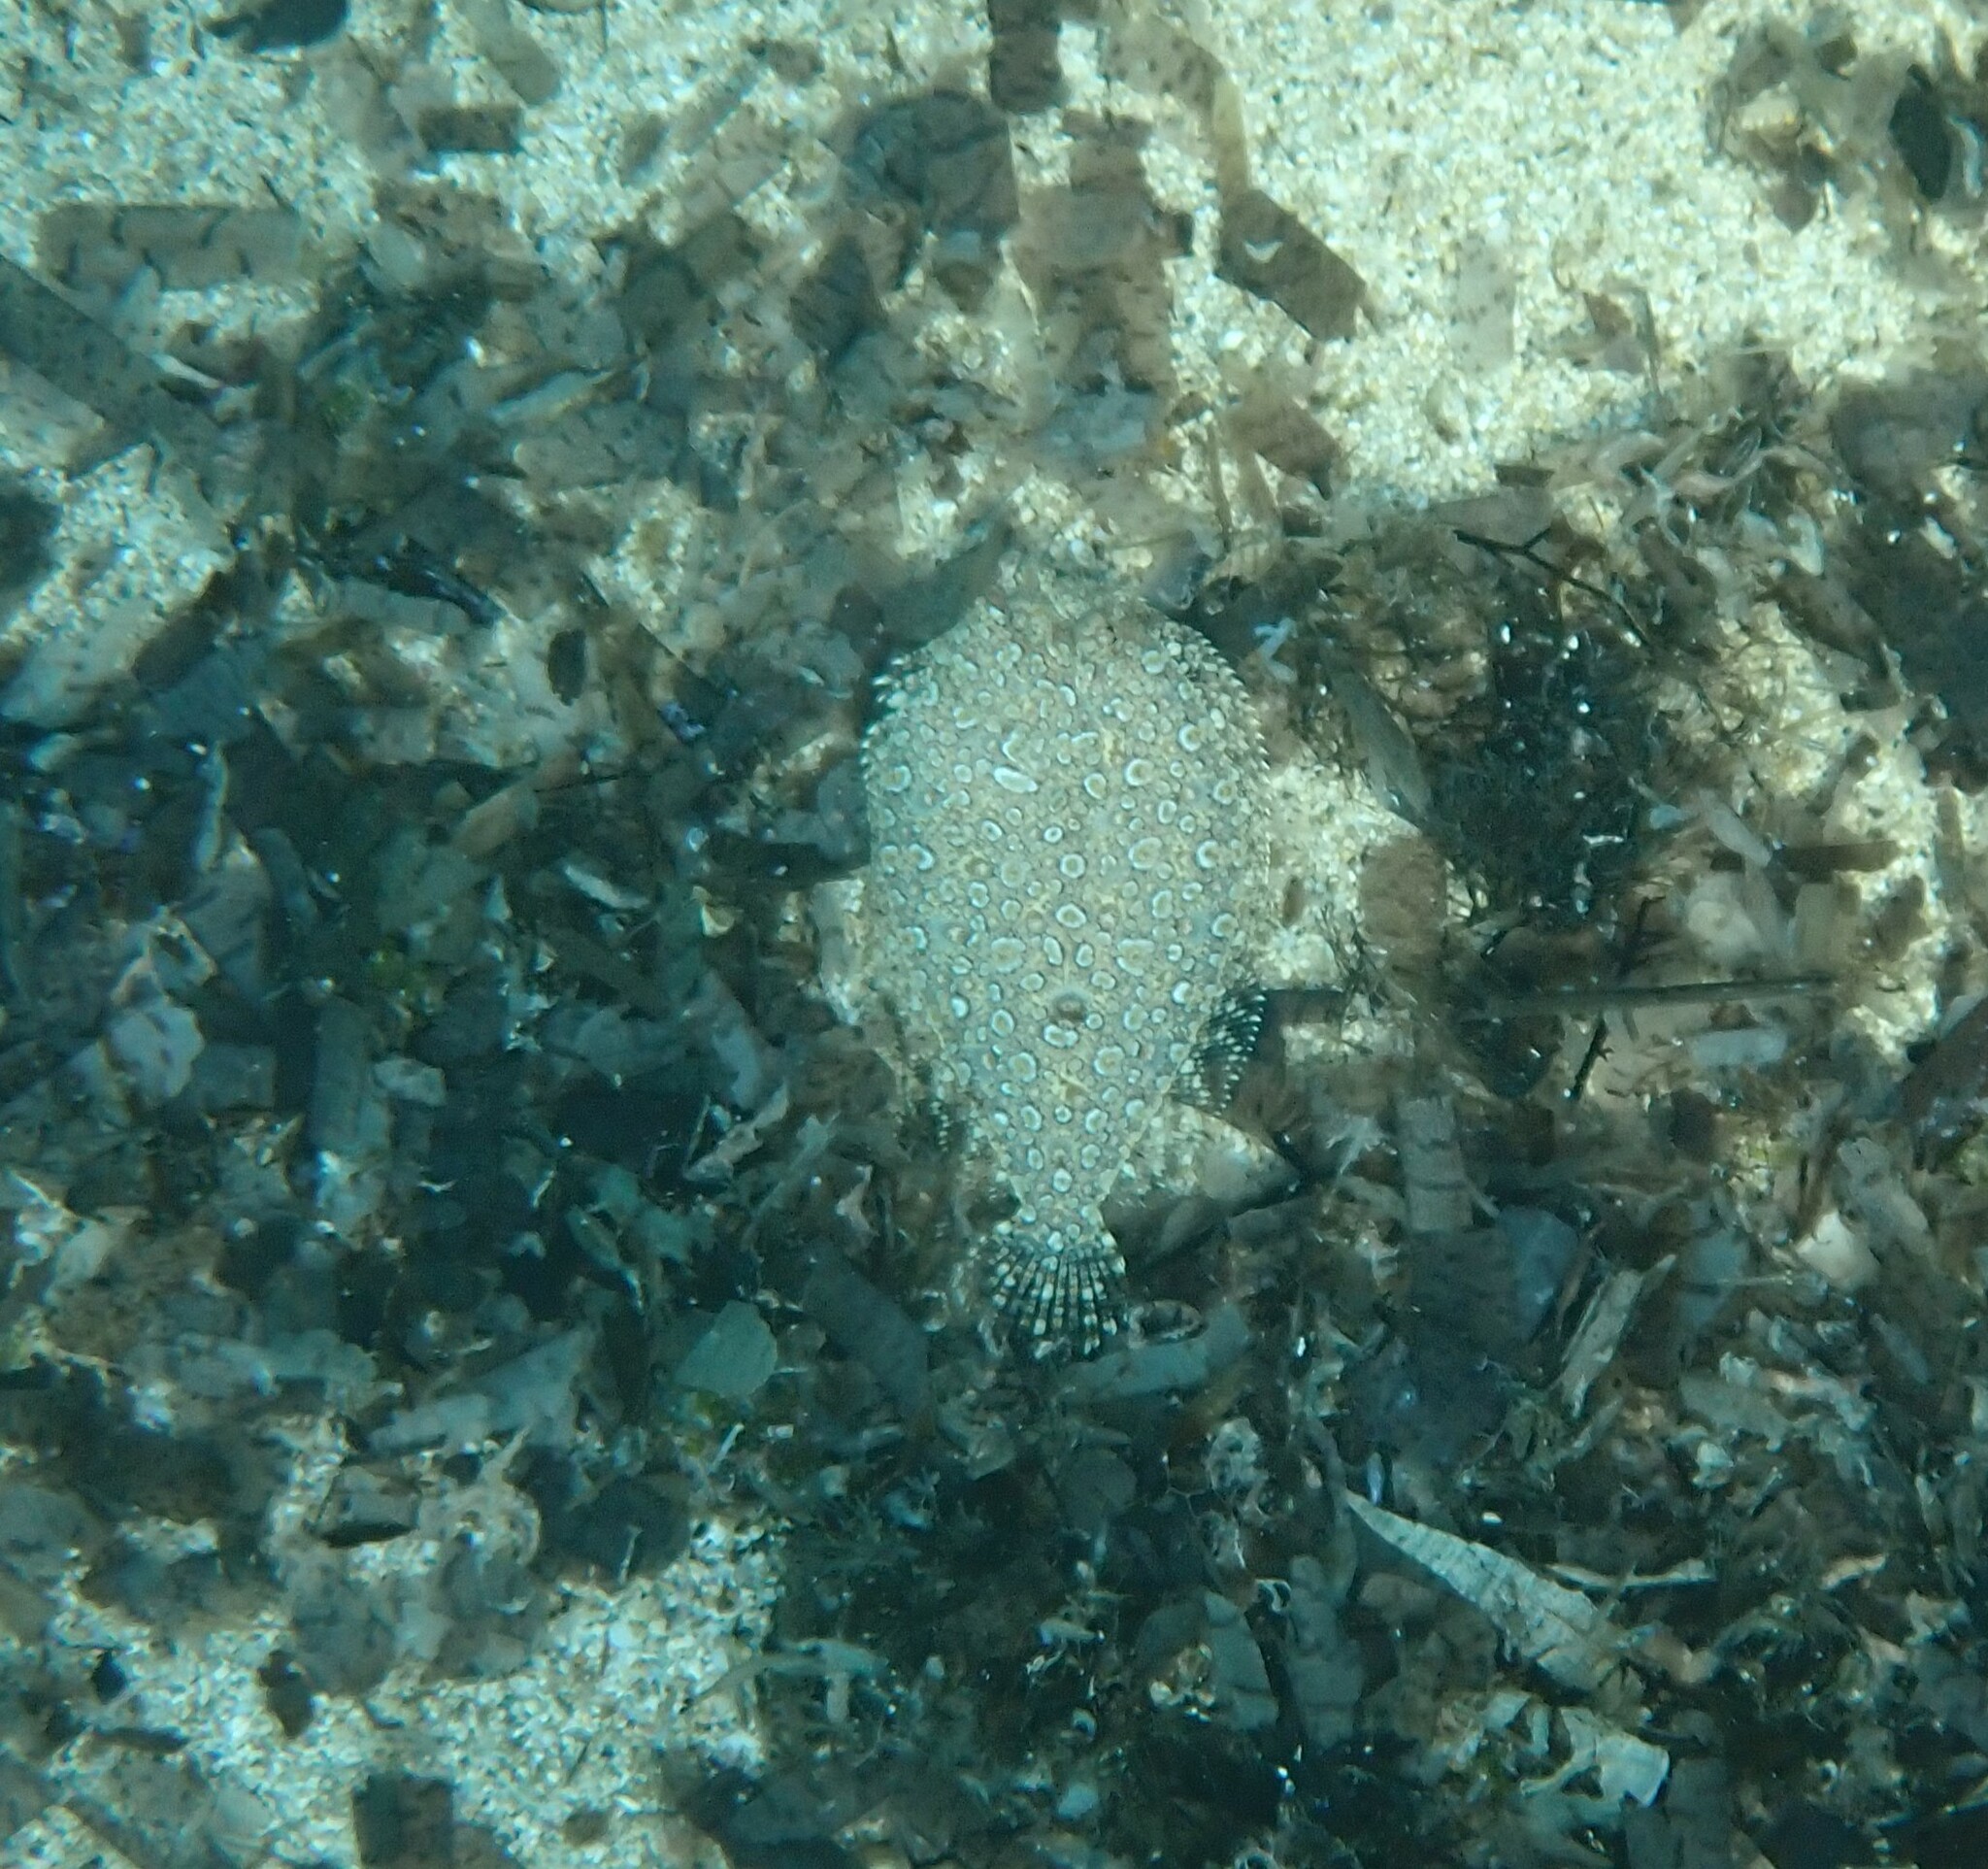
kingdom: Animalia
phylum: Chordata
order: Pleuronectiformes
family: Bothidae
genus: Bothus
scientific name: Bothus podas
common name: Wide-eyed flounder
